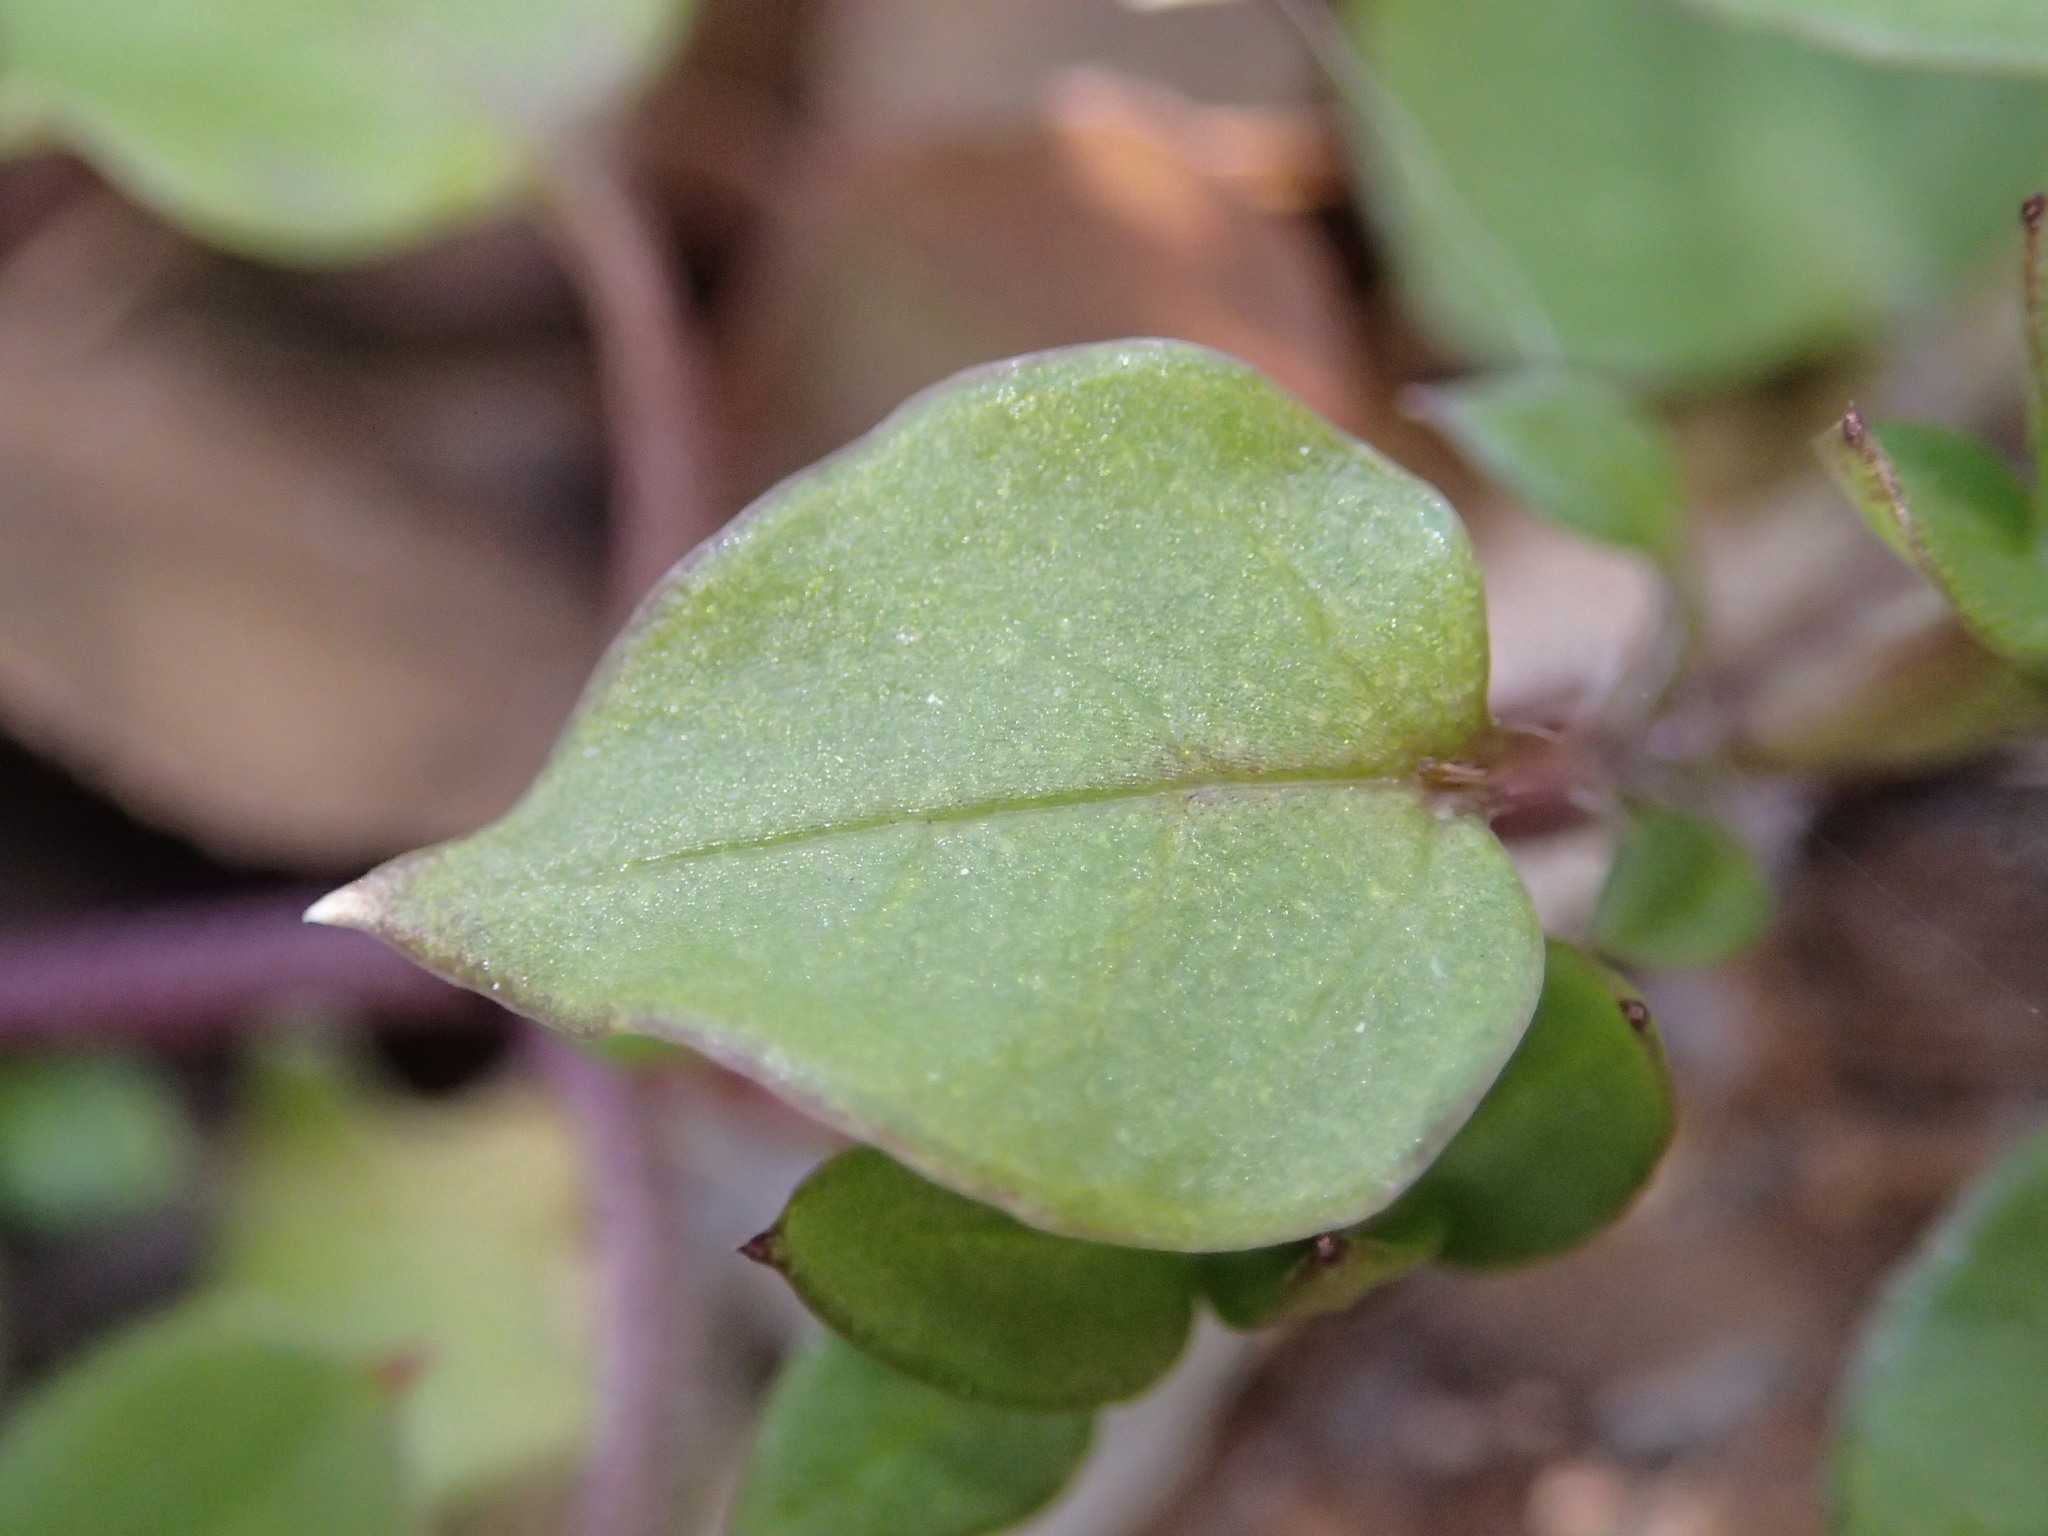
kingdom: Plantae
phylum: Tracheophyta
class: Magnoliopsida
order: Caryophyllales
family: Caryophyllaceae
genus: Stellaria
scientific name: Stellaria media
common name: Common chickweed
